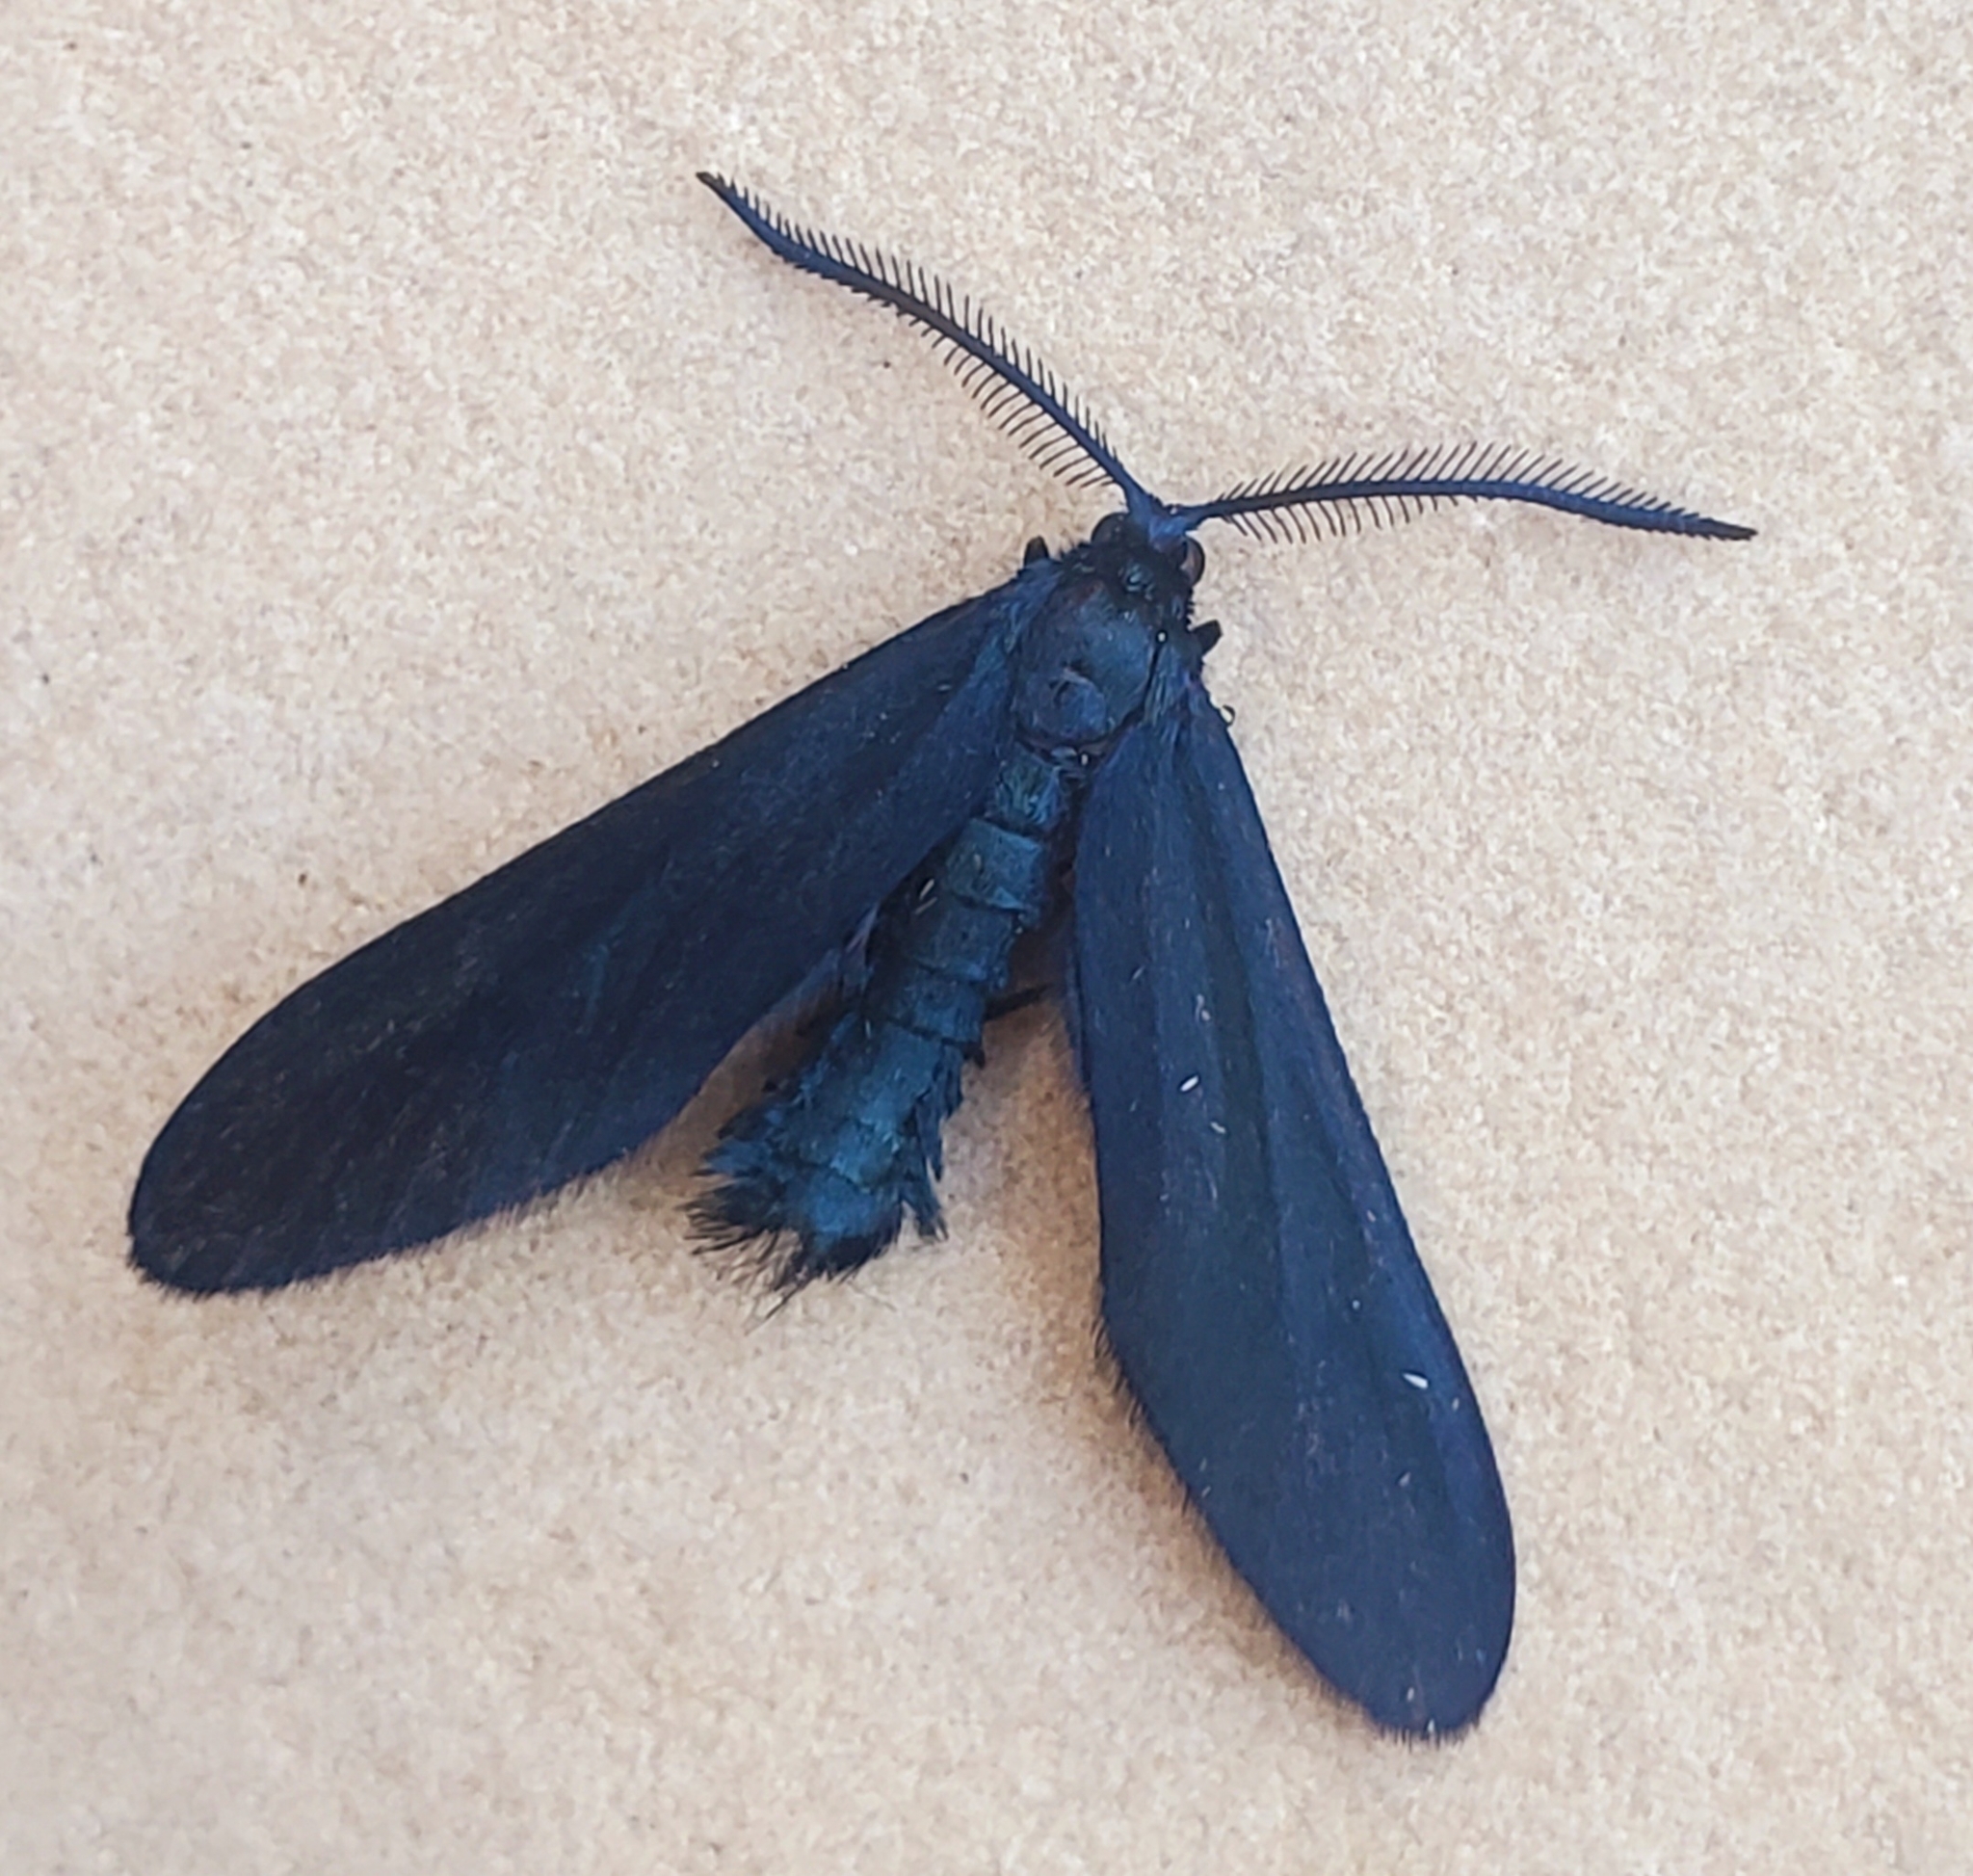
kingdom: Animalia
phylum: Arthropoda
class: Insecta
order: Lepidoptera
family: Zygaenidae
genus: Harrisina
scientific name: Harrisina metallica
